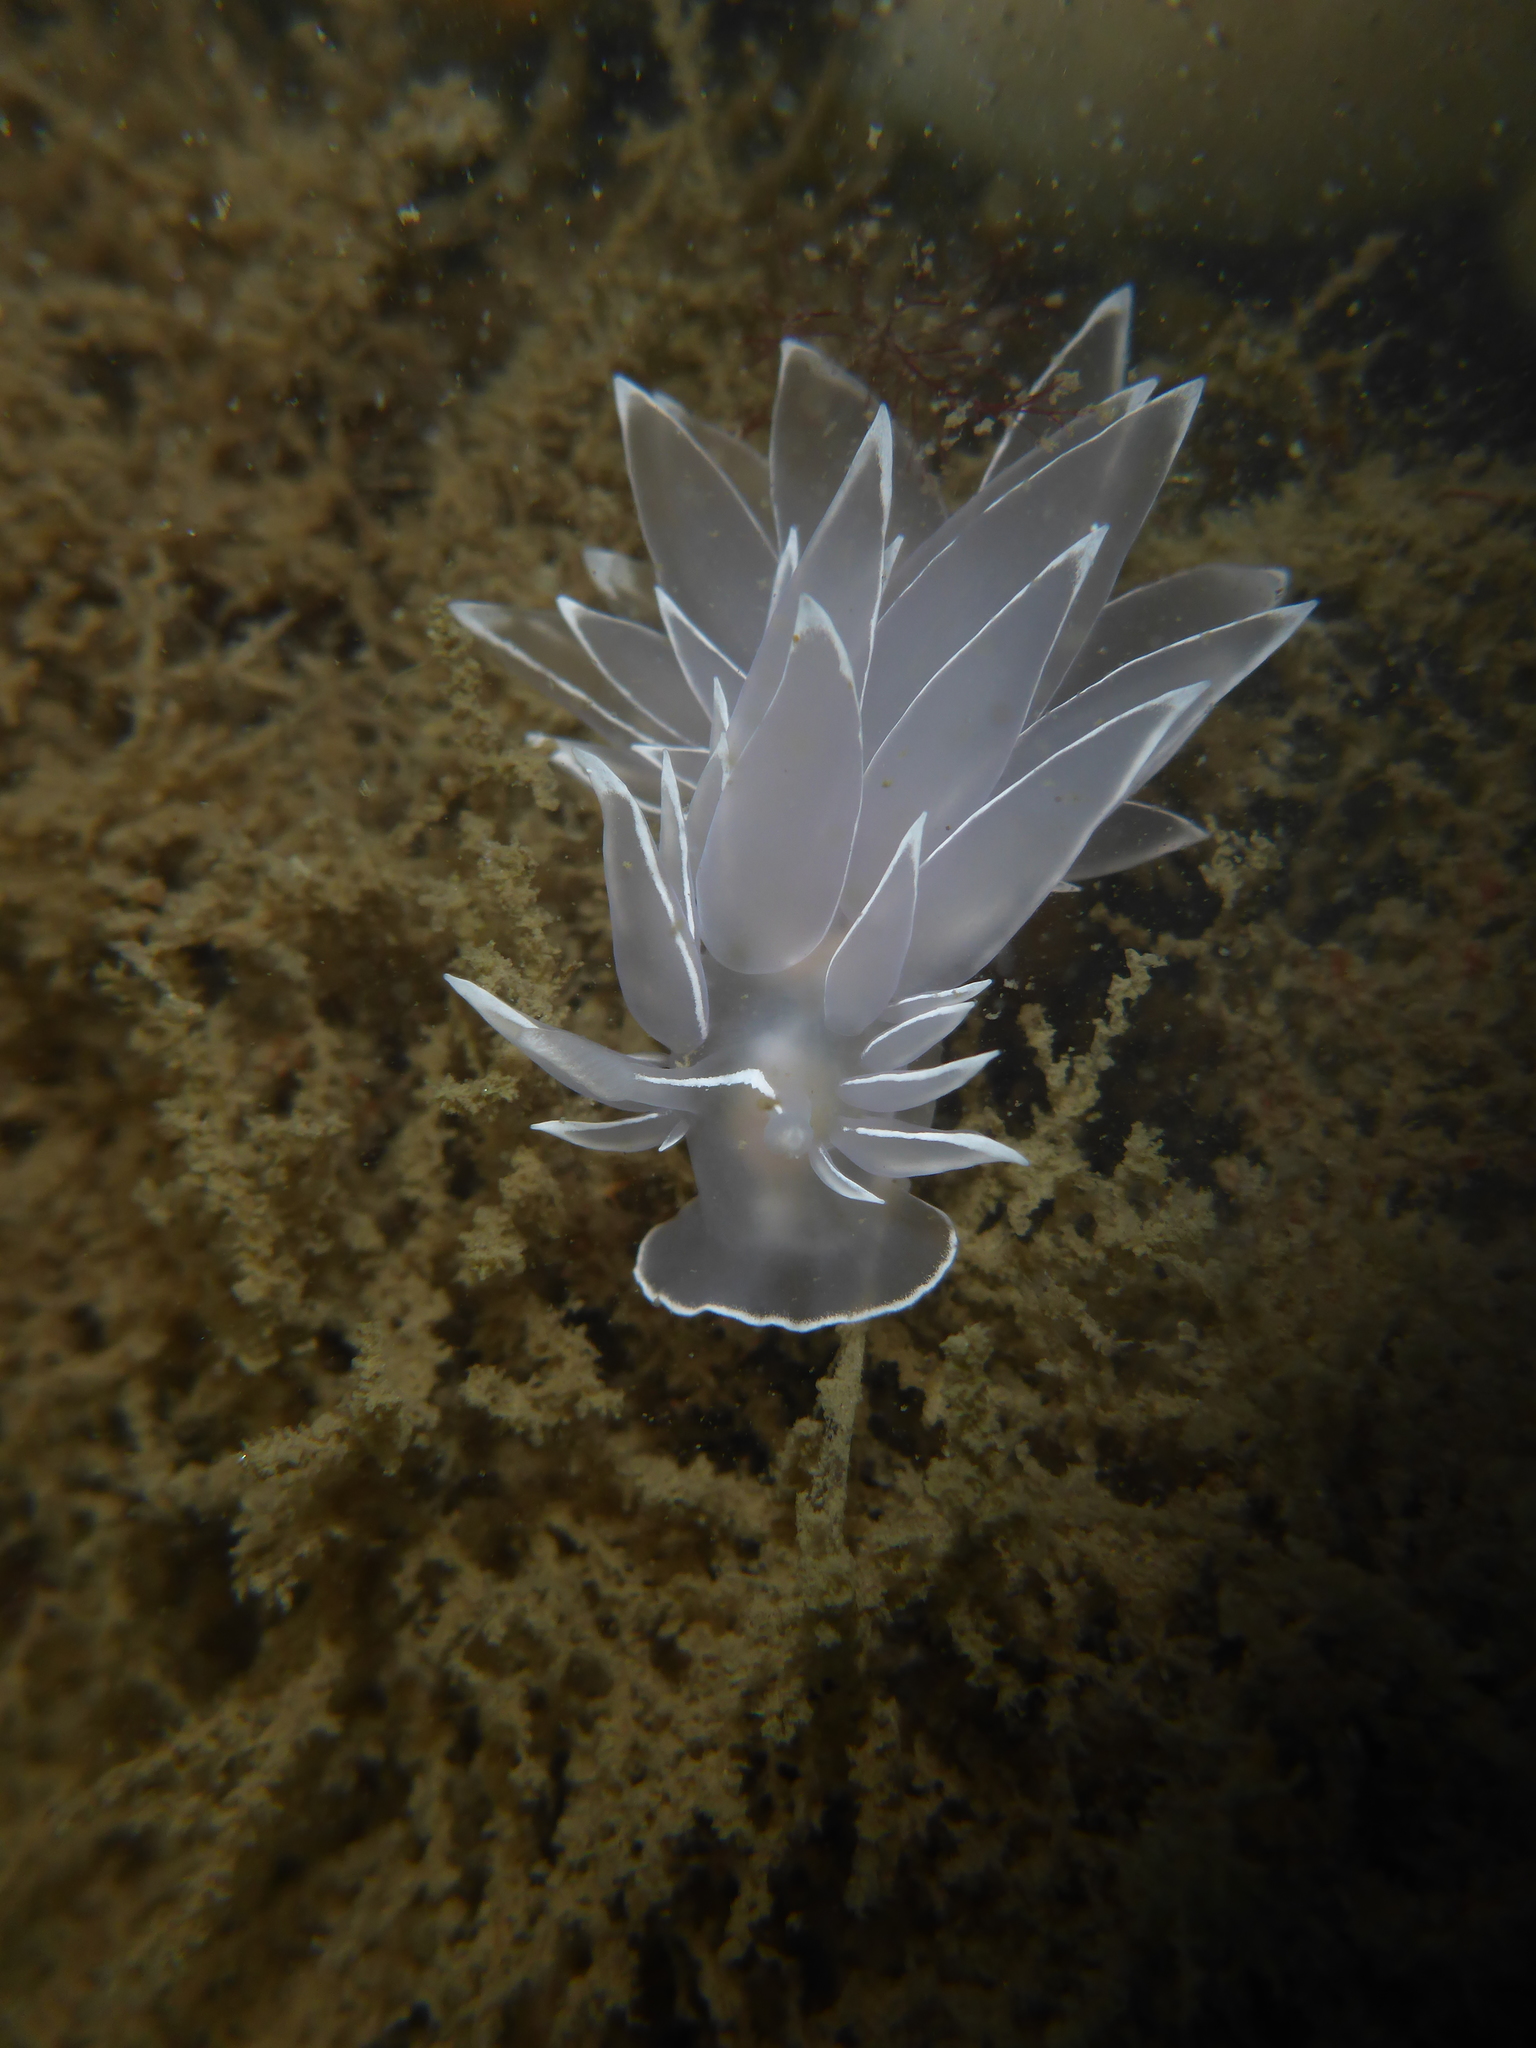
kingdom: Animalia
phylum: Mollusca
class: Gastropoda
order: Nudibranchia
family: Dironidae
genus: Dirona
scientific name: Dirona albolineata
